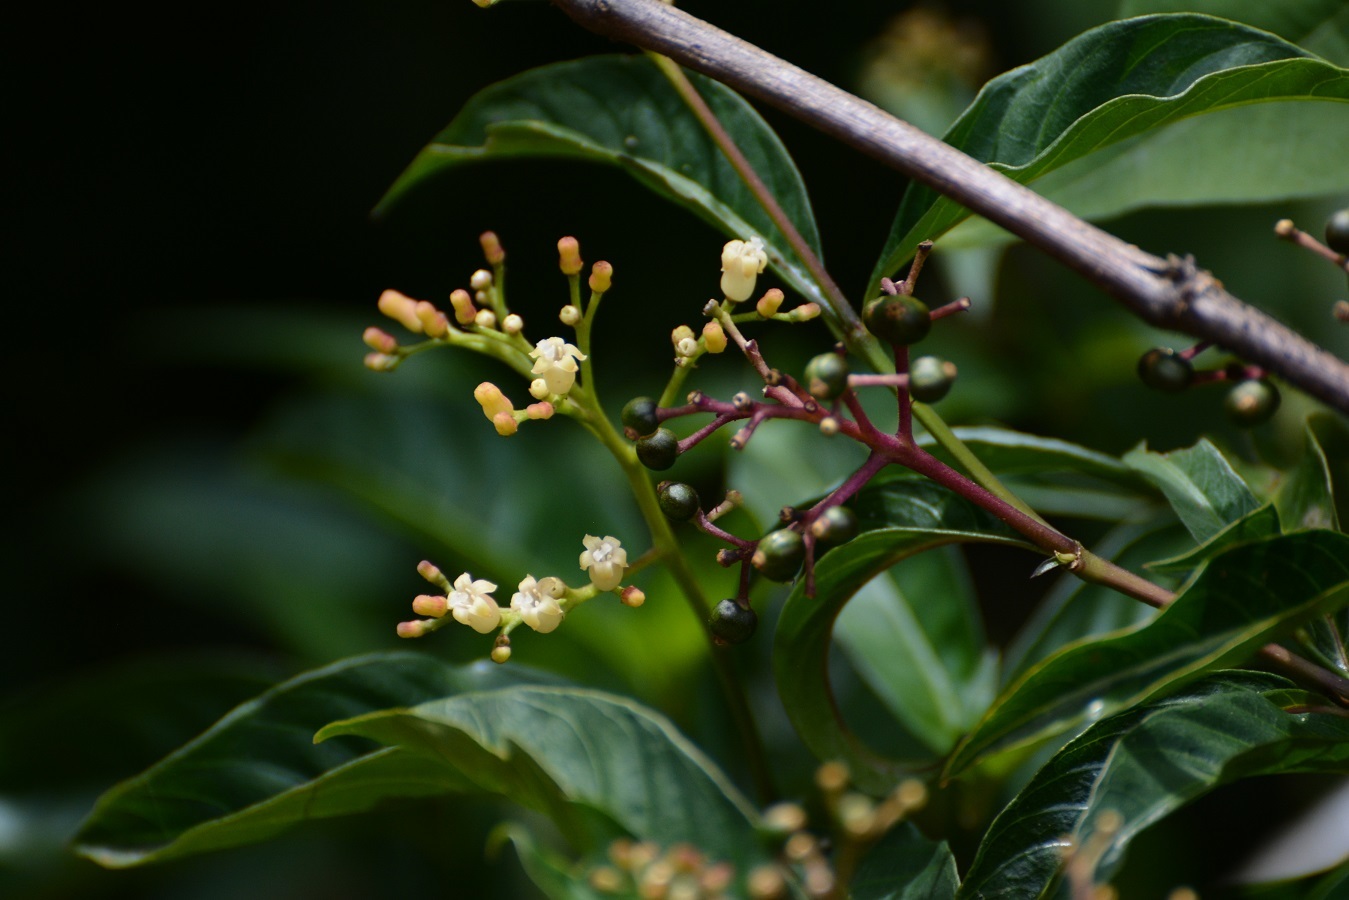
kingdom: Plantae
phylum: Tracheophyta
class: Magnoliopsida
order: Gentianales
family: Rubiaceae
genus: Palicourea
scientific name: Palicourea pubescens
